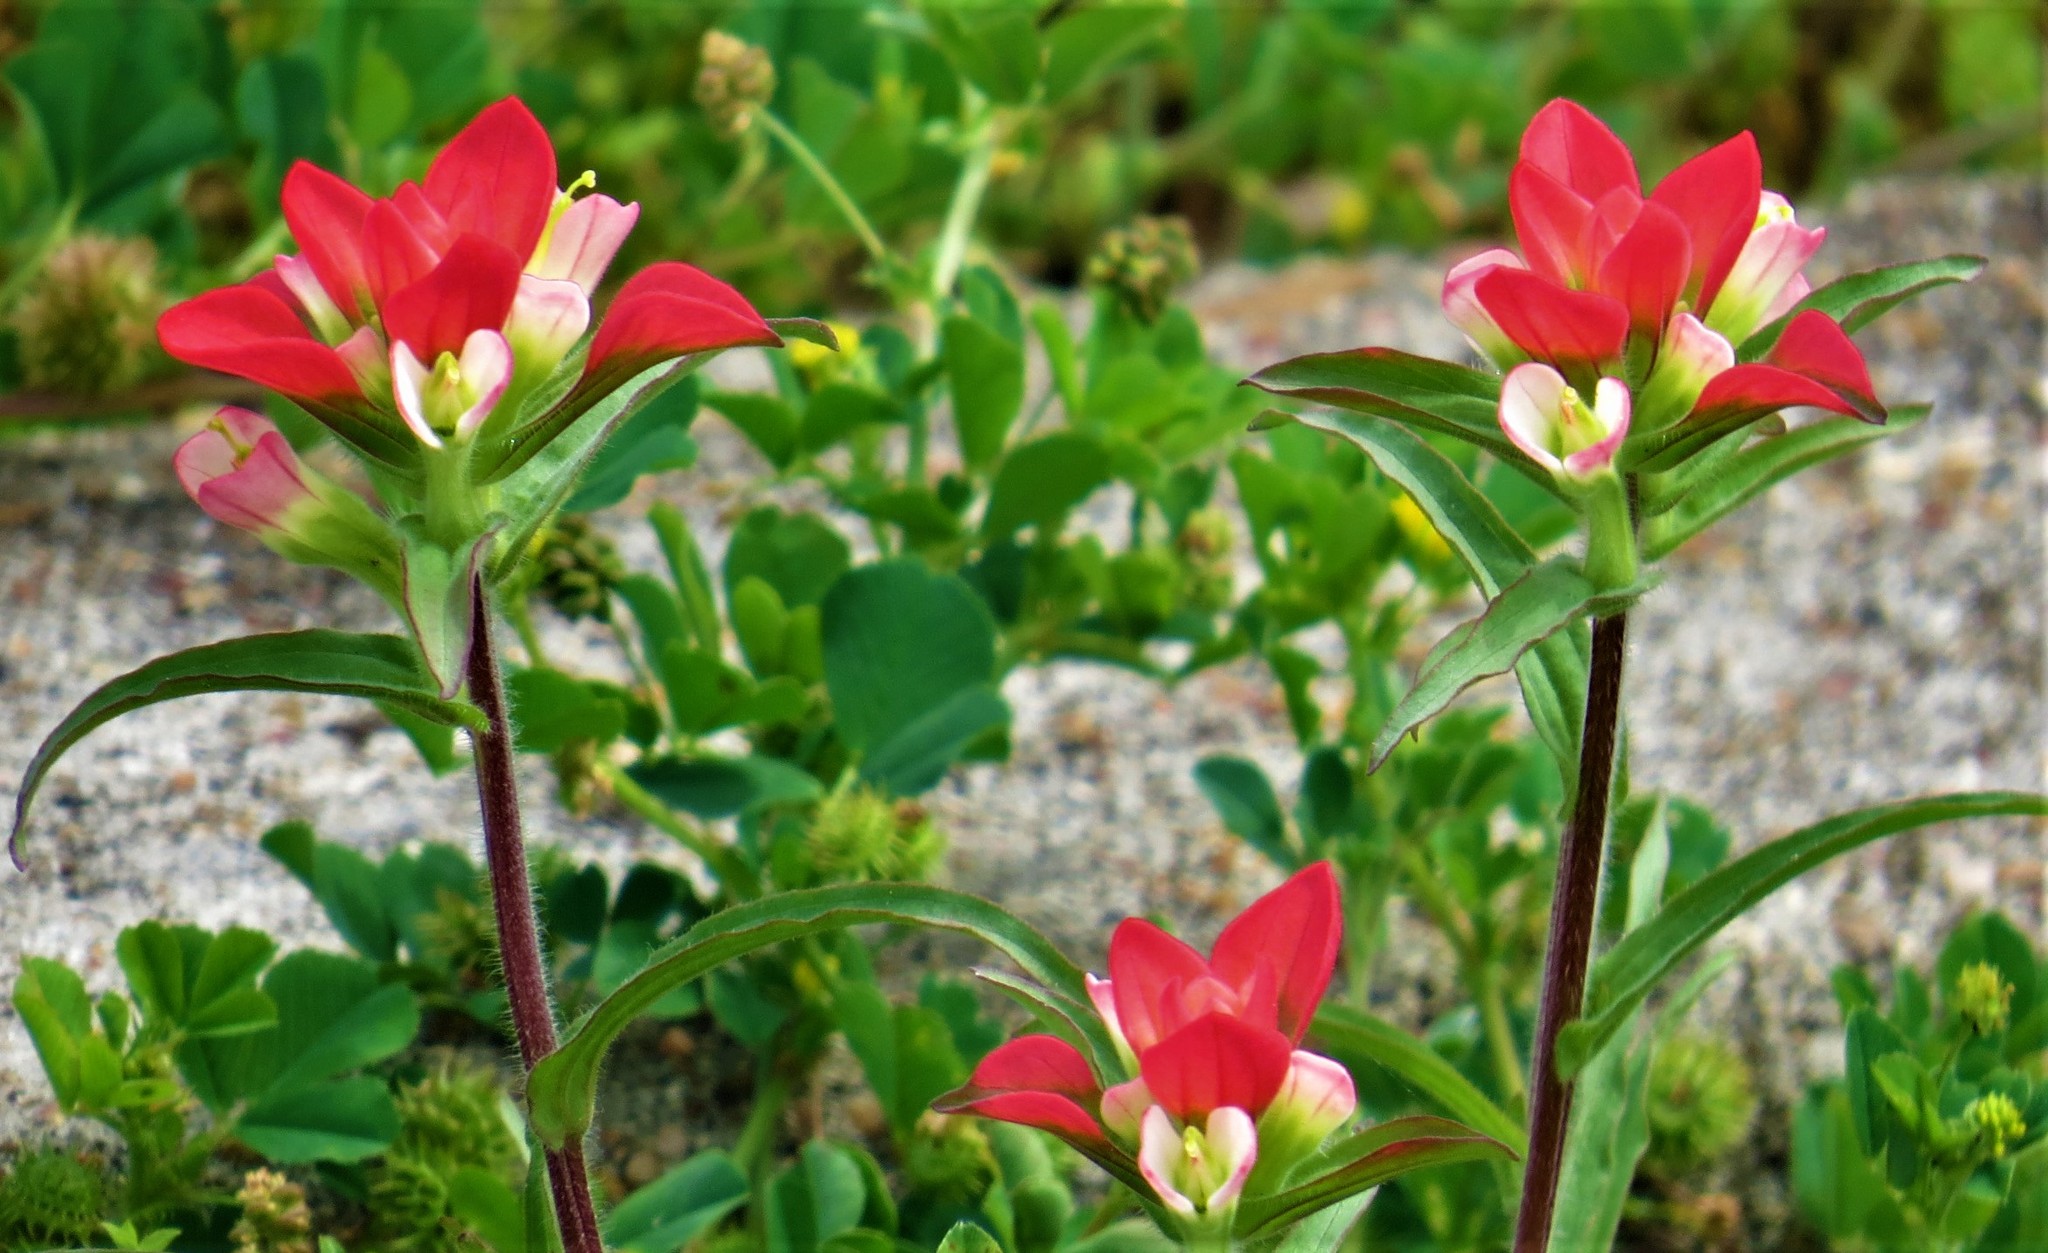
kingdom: Plantae
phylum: Tracheophyta
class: Magnoliopsida
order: Lamiales
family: Orobanchaceae
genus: Castilleja
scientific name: Castilleja indivisa
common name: Texas paintbrush
